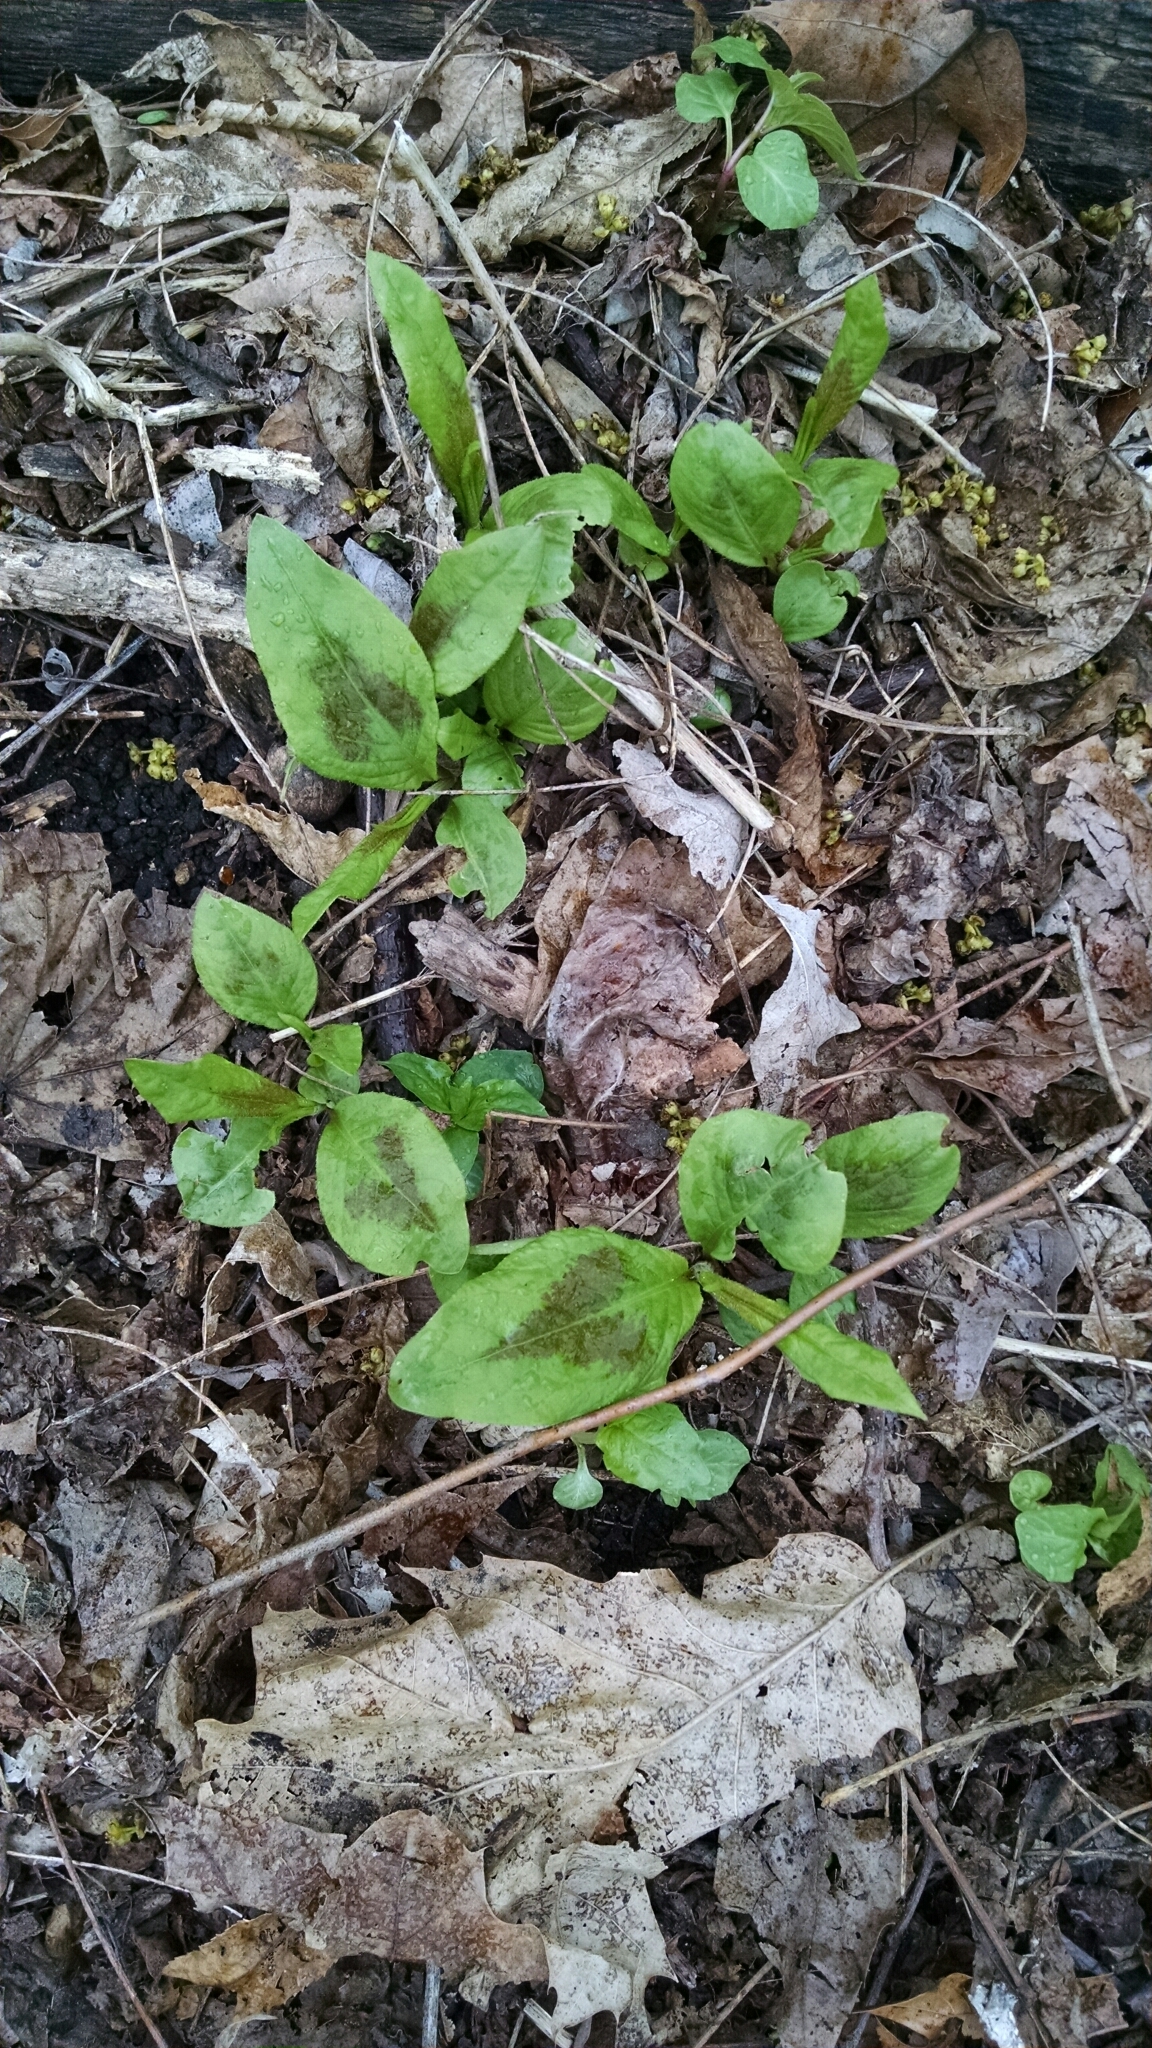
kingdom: Plantae
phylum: Tracheophyta
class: Magnoliopsida
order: Caryophyllales
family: Polygonaceae
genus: Persicaria
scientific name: Persicaria virginiana
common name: Jumpseed
